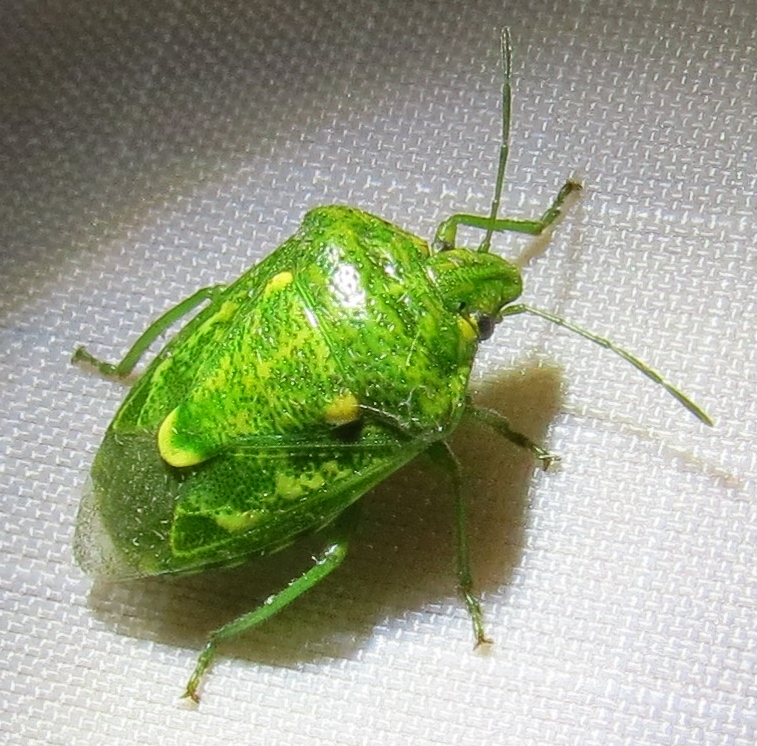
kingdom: Animalia
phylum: Arthropoda
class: Insecta
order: Hemiptera
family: Pentatomidae
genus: Banasa
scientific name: Banasa euchlora
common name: Cedar berry bug
